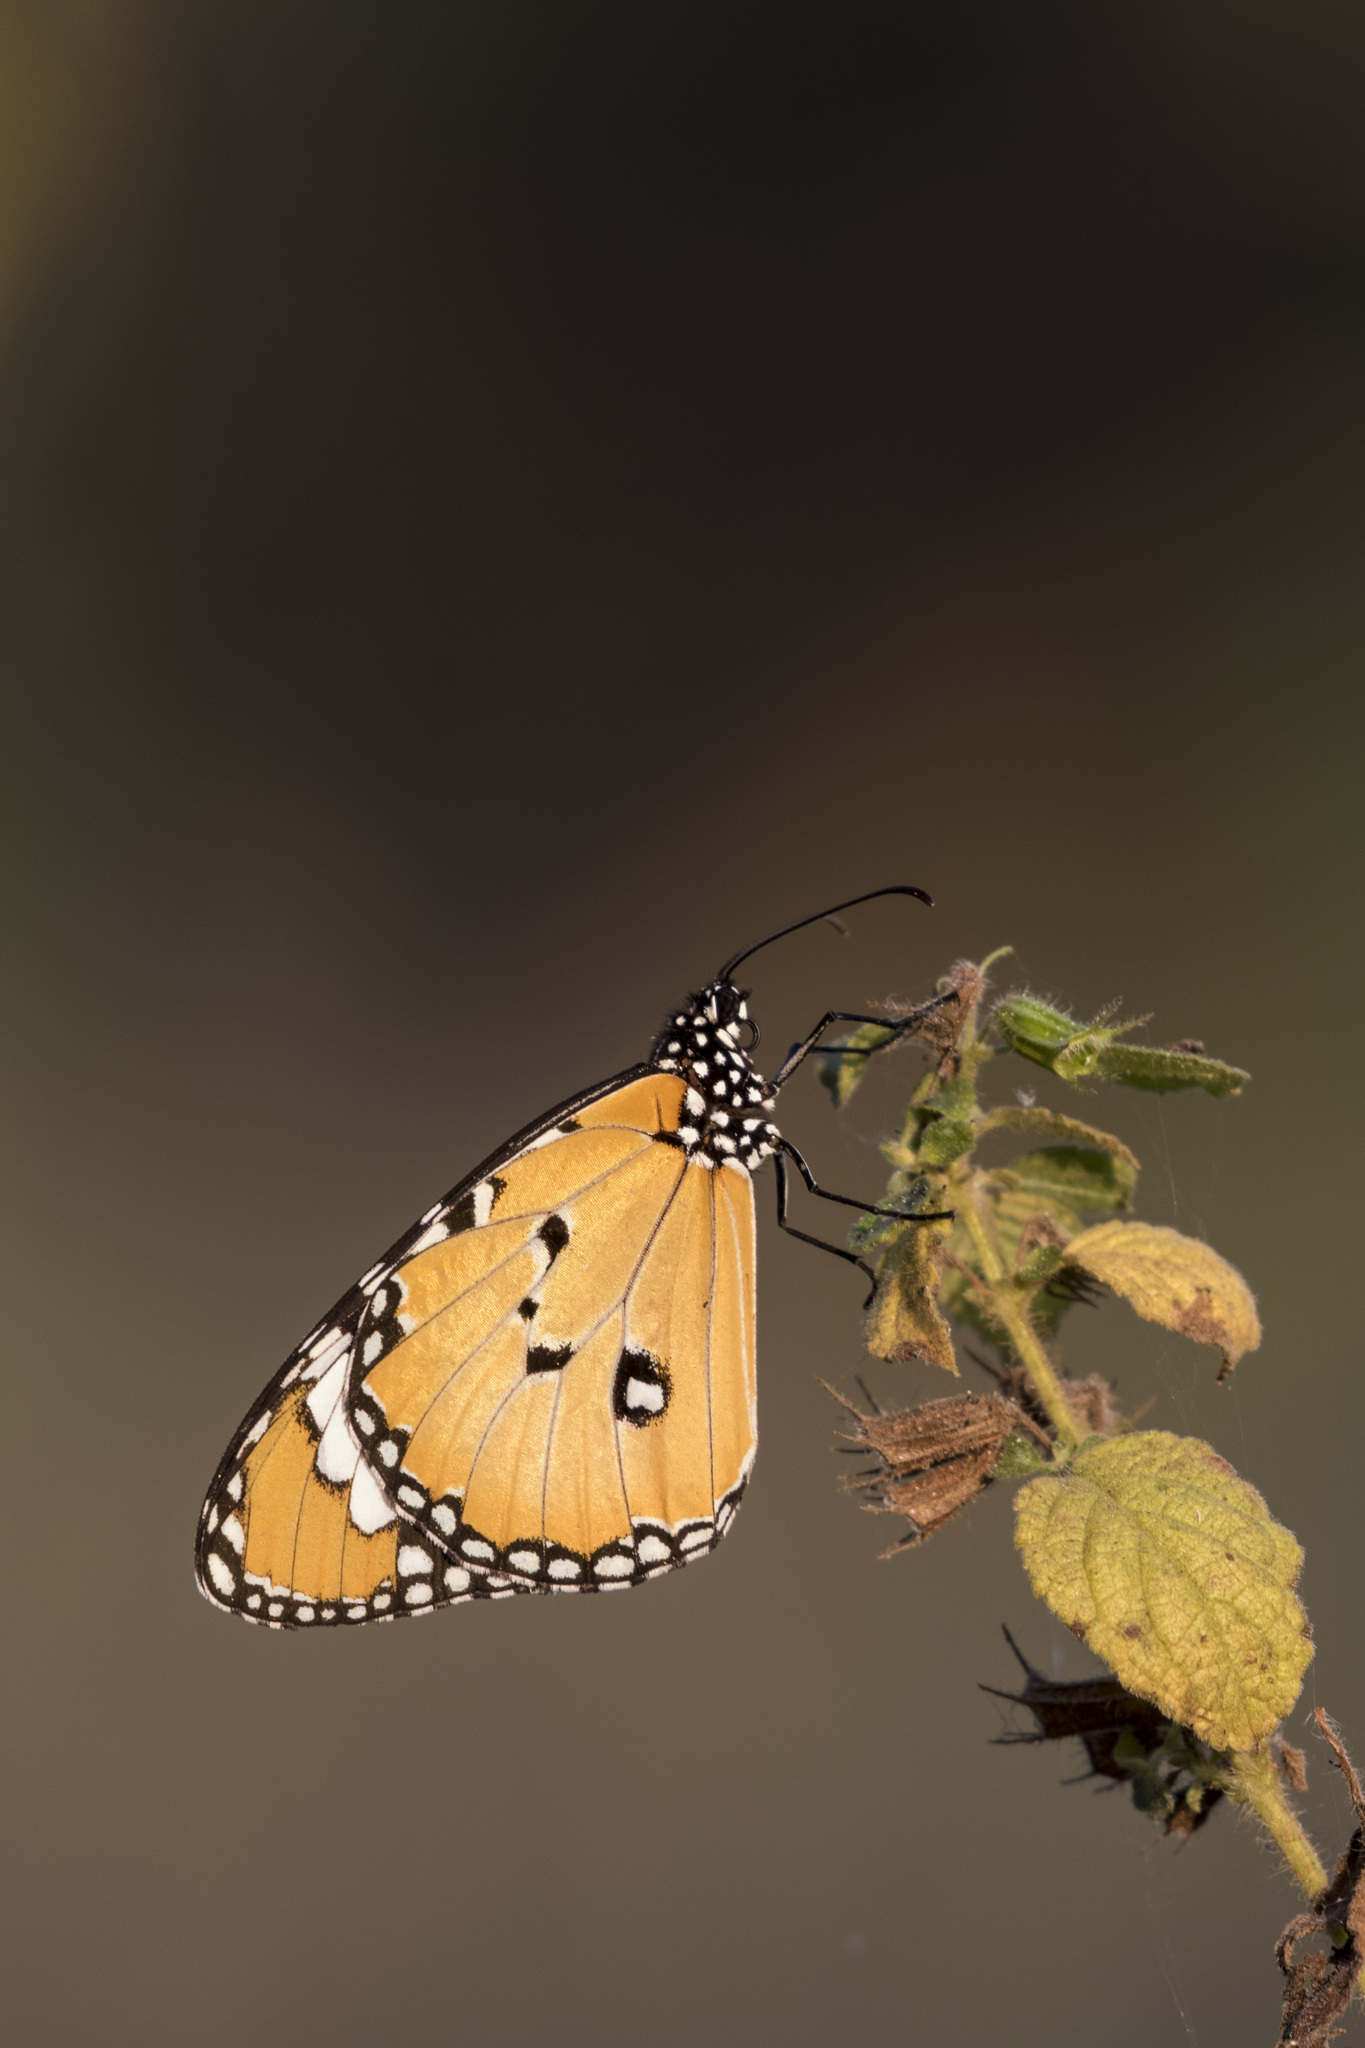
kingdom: Animalia
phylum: Arthropoda
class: Insecta
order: Lepidoptera
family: Nymphalidae
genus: Danaus
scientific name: Danaus chrysippus
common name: Plain tiger
